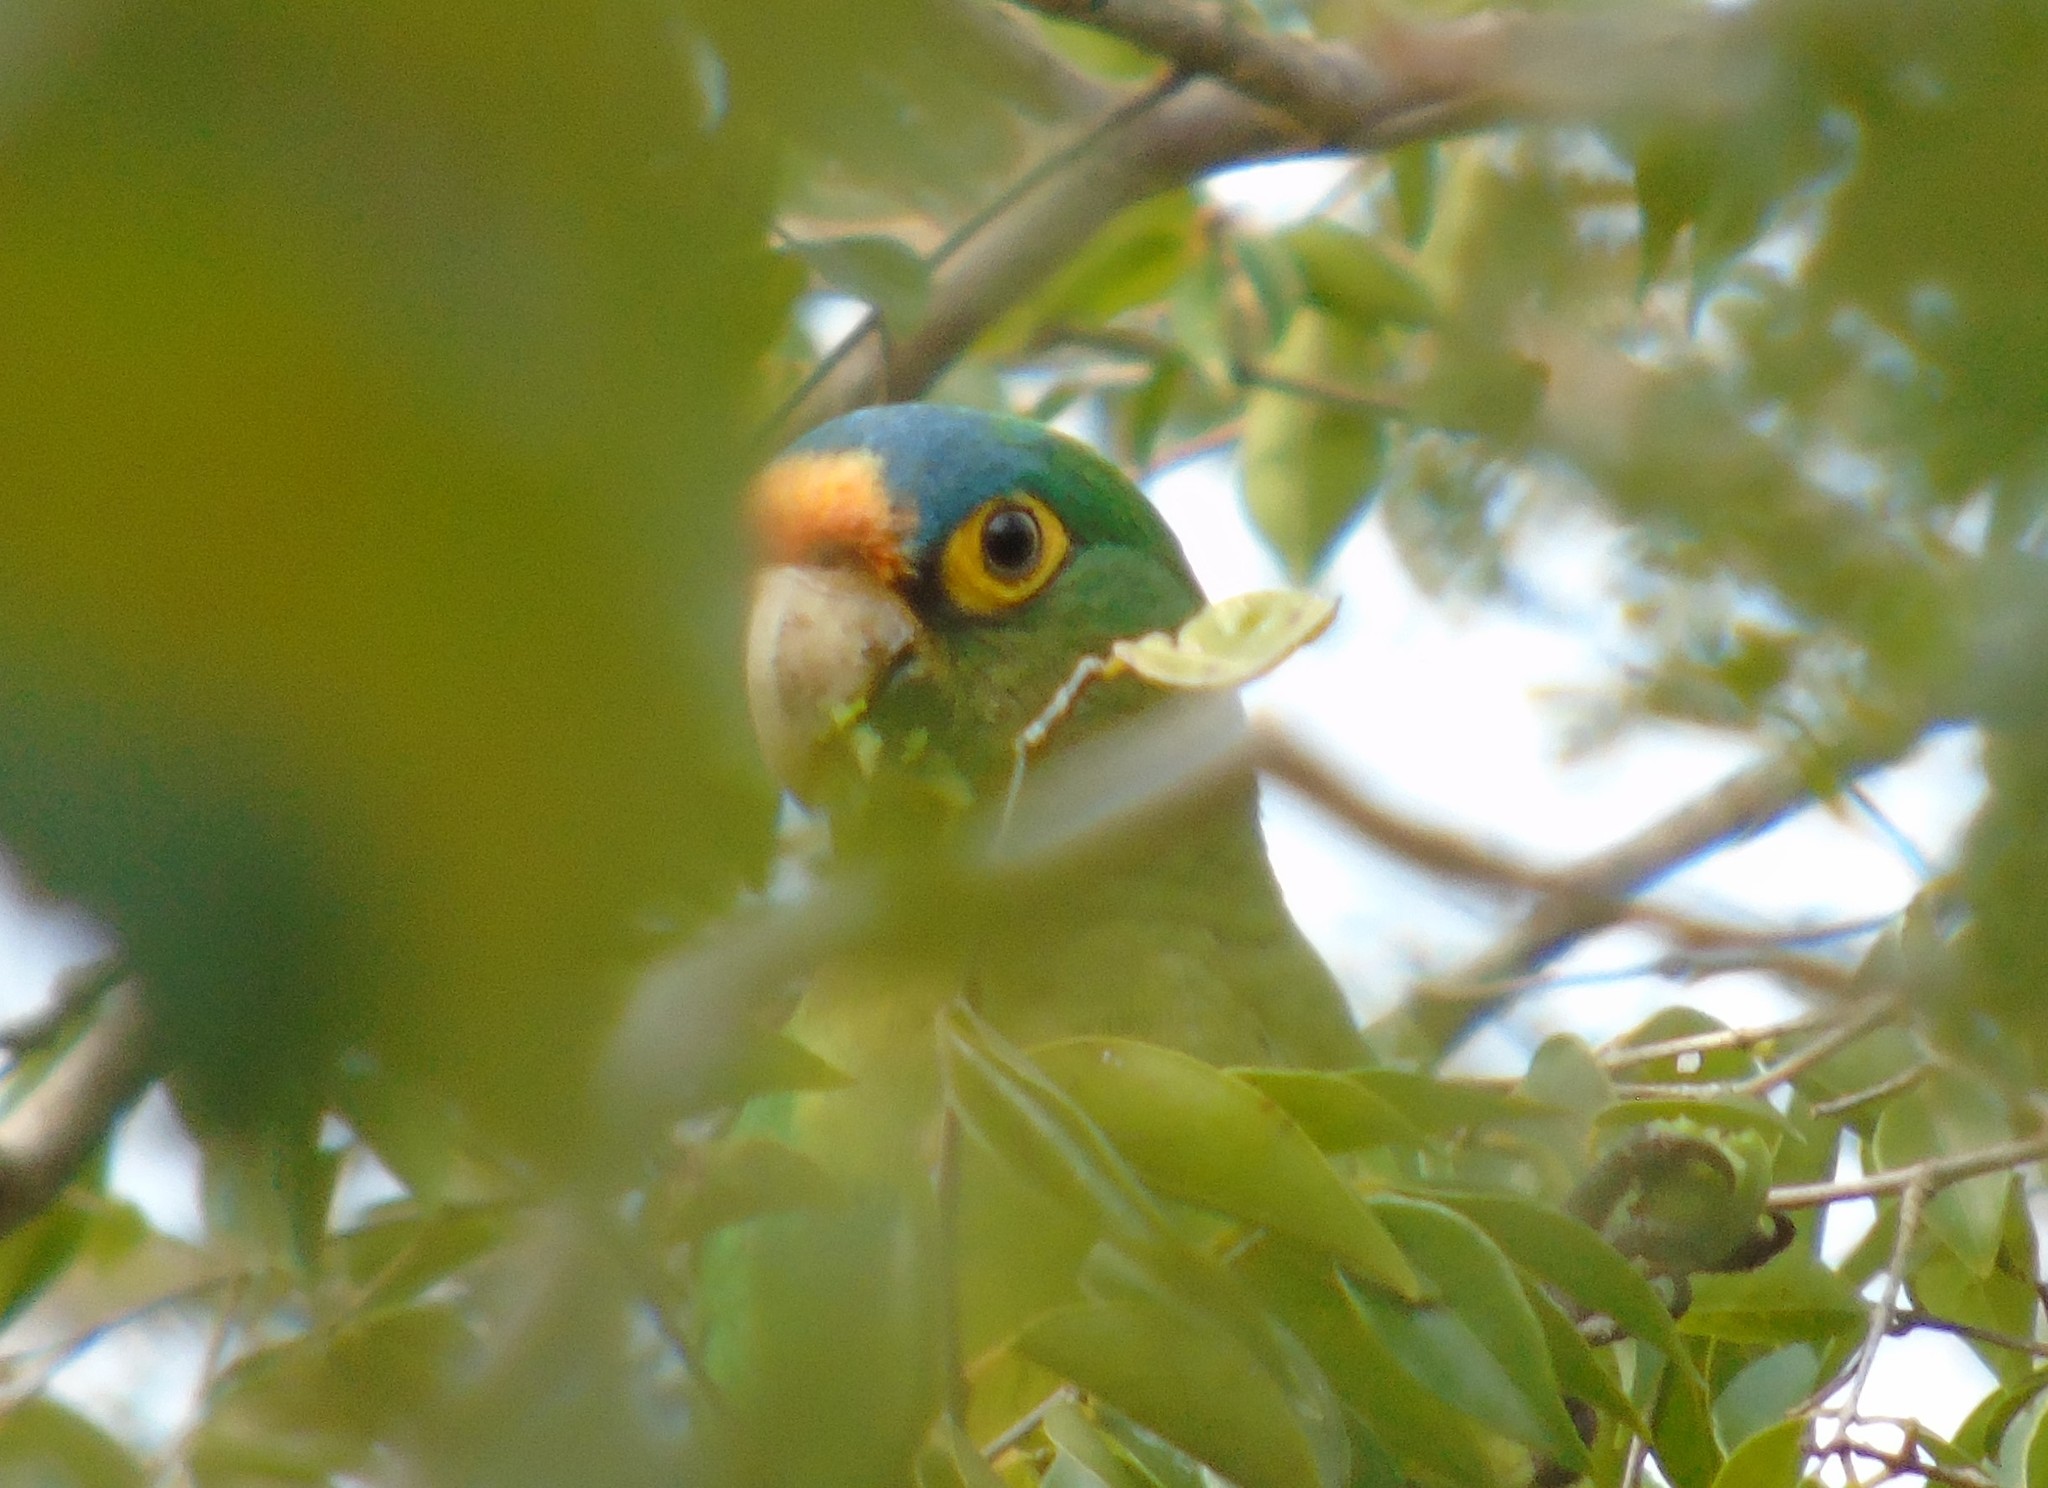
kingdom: Animalia
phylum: Chordata
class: Aves
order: Psittaciformes
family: Psittacidae
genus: Aratinga
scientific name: Aratinga canicularis
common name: Orange-fronted parakeet
